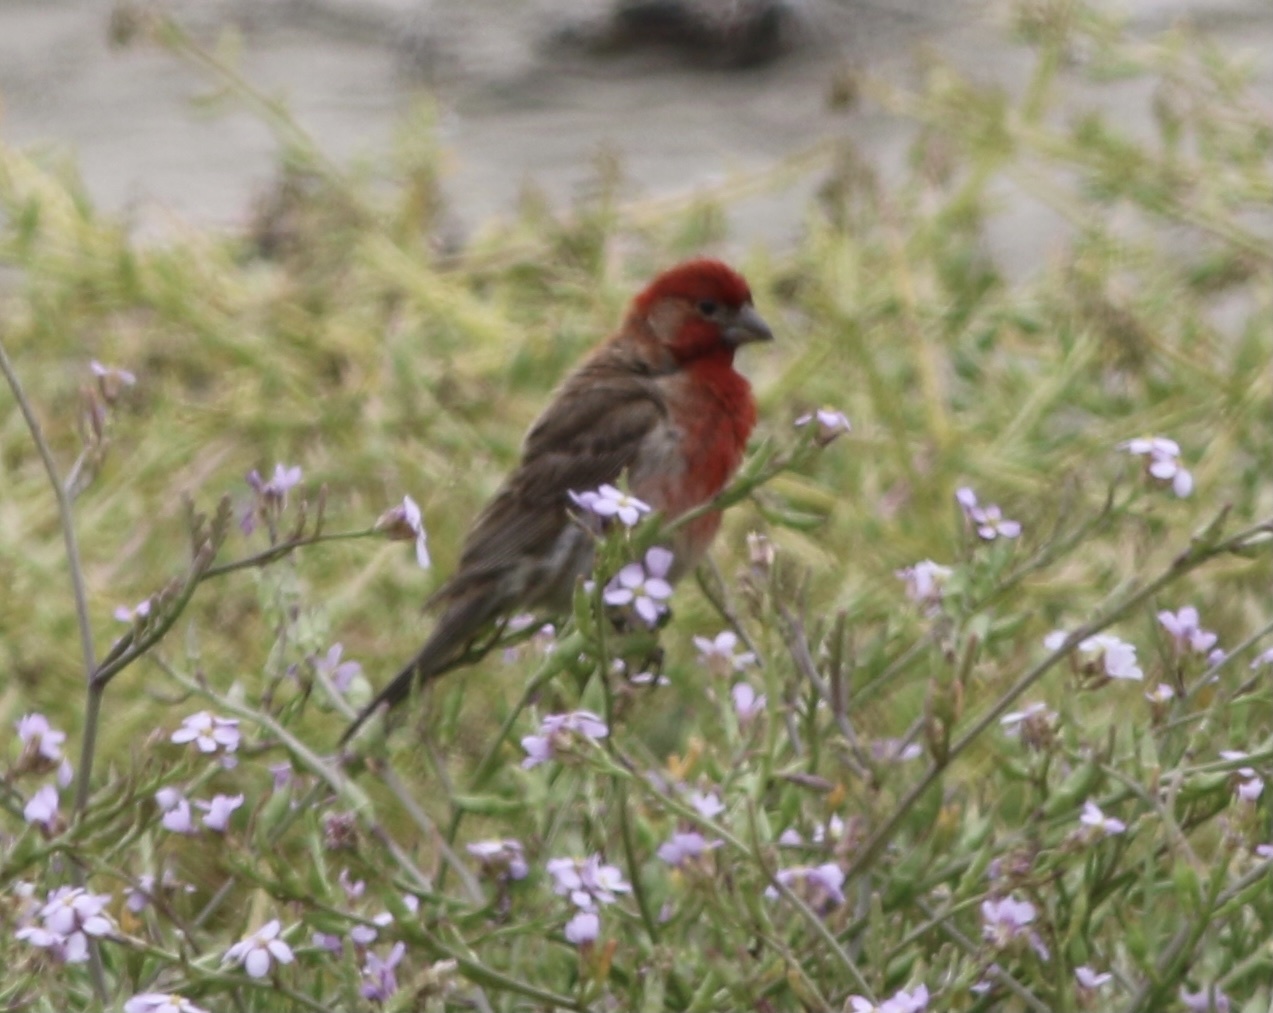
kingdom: Animalia
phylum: Chordata
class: Aves
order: Passeriformes
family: Fringillidae
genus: Haemorhous
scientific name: Haemorhous mexicanus
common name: House finch
